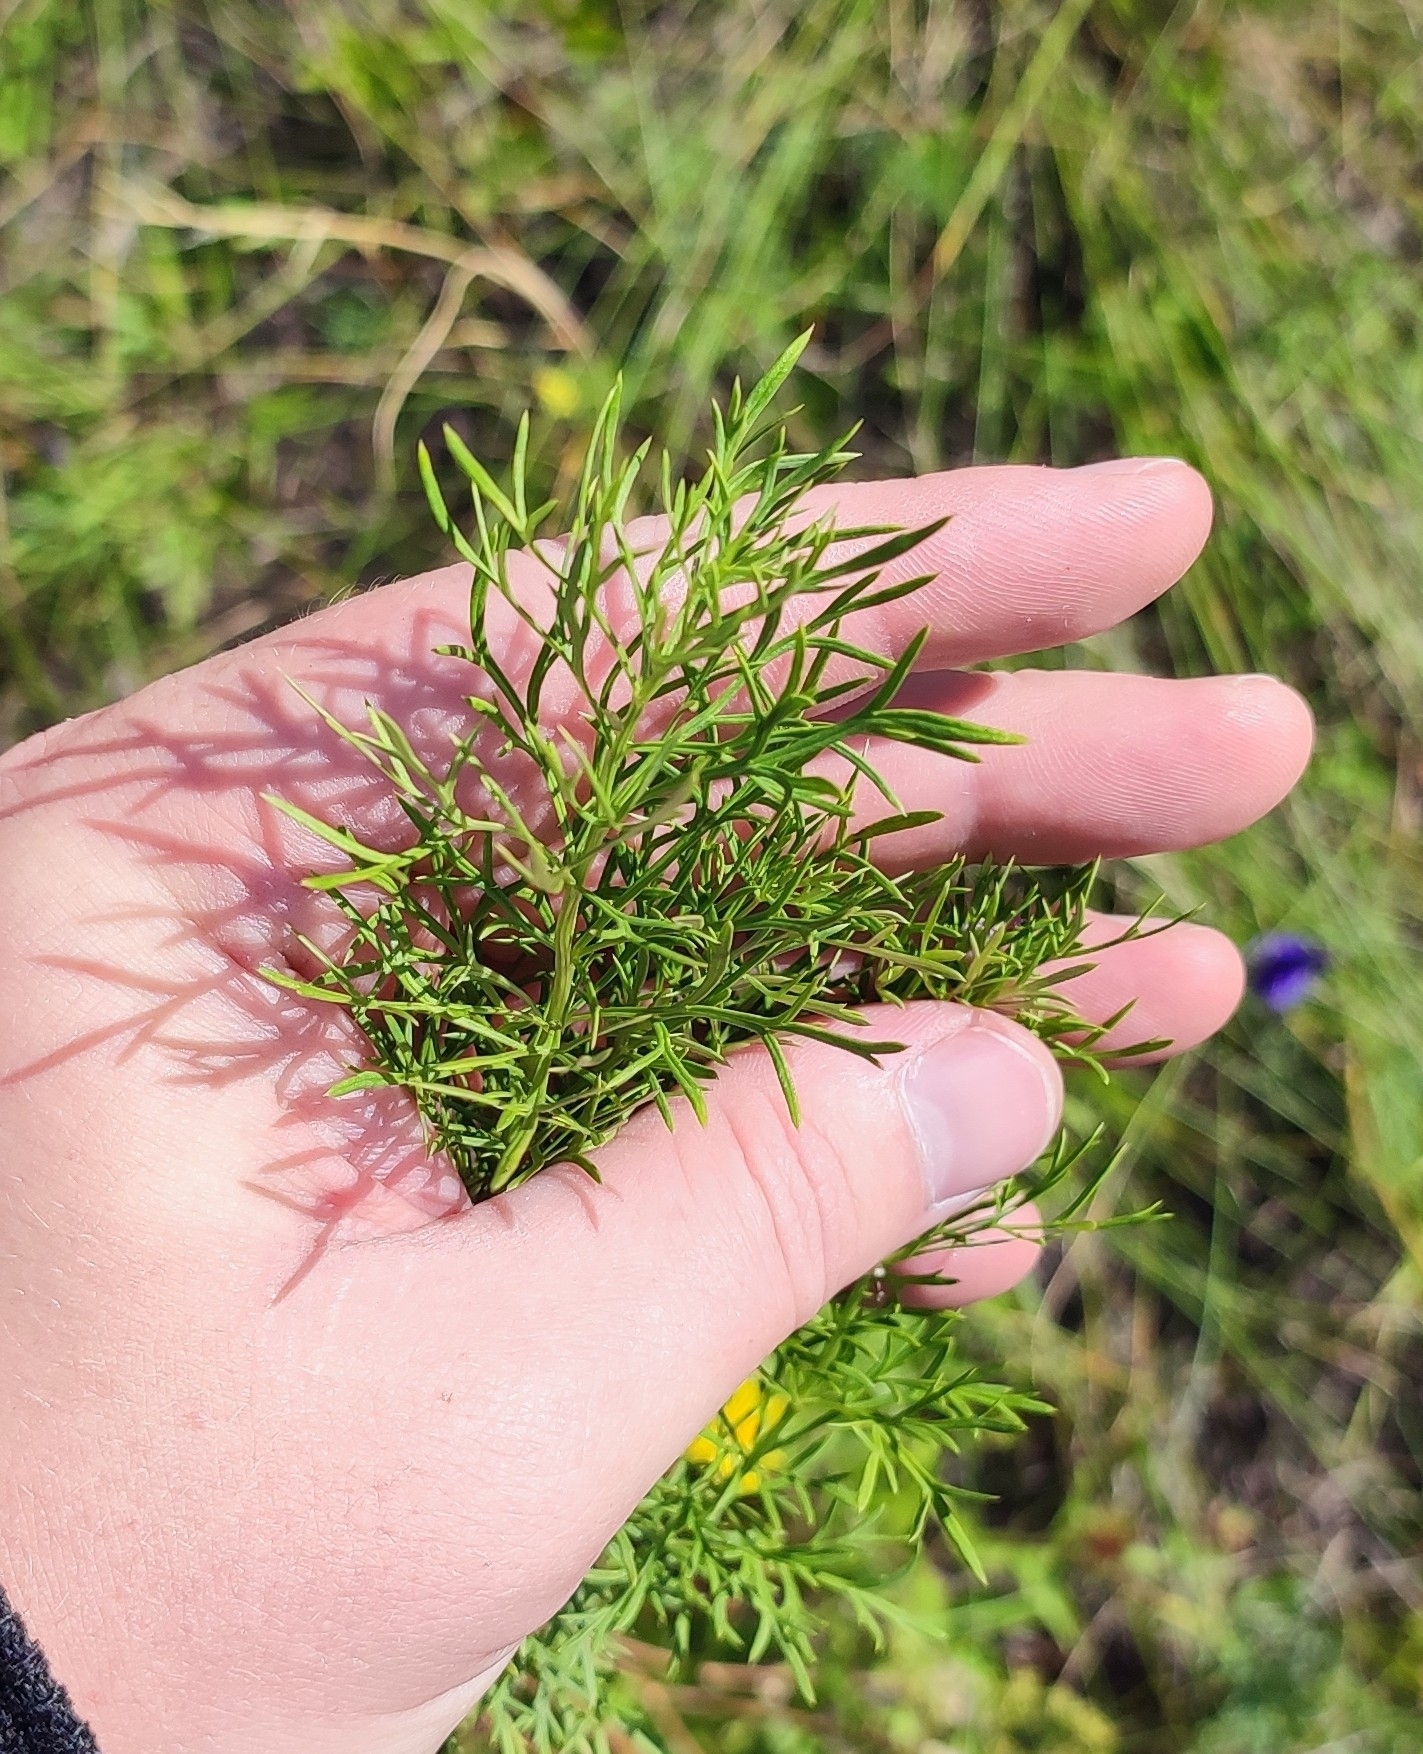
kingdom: Plantae
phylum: Tracheophyta
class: Magnoliopsida
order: Ranunculales
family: Ranunculaceae
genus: Adonis
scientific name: Adonis vernalis
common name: Yellow pheasants-eye
